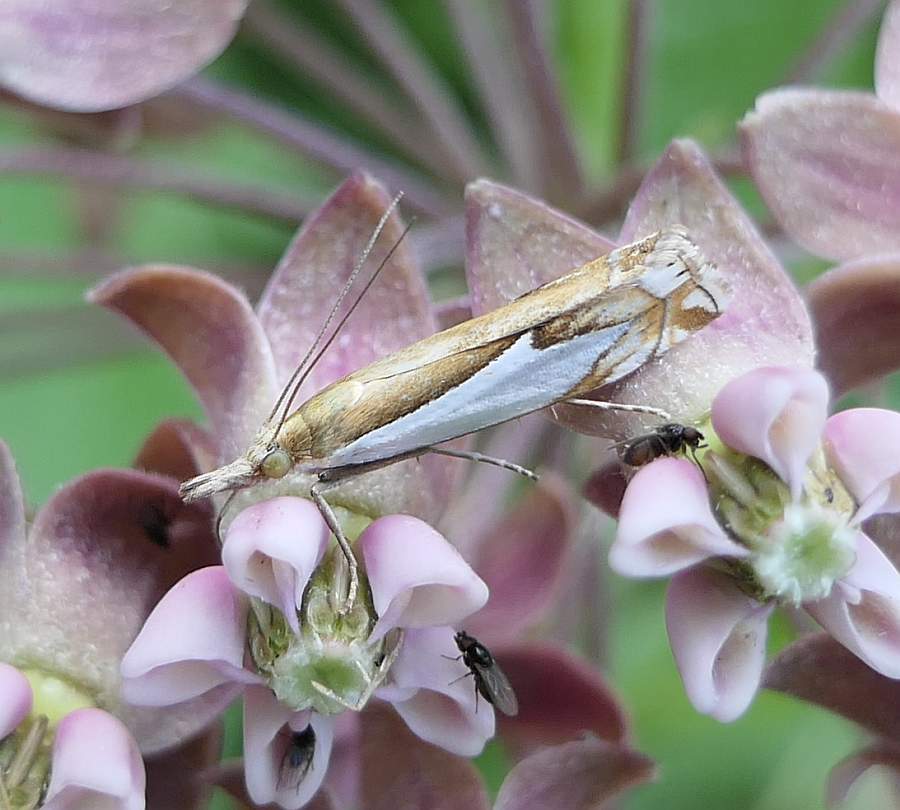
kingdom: Animalia
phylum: Arthropoda
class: Insecta
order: Lepidoptera
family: Crambidae
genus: Crambus
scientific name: Crambus bidens
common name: Forked grass-veneer
